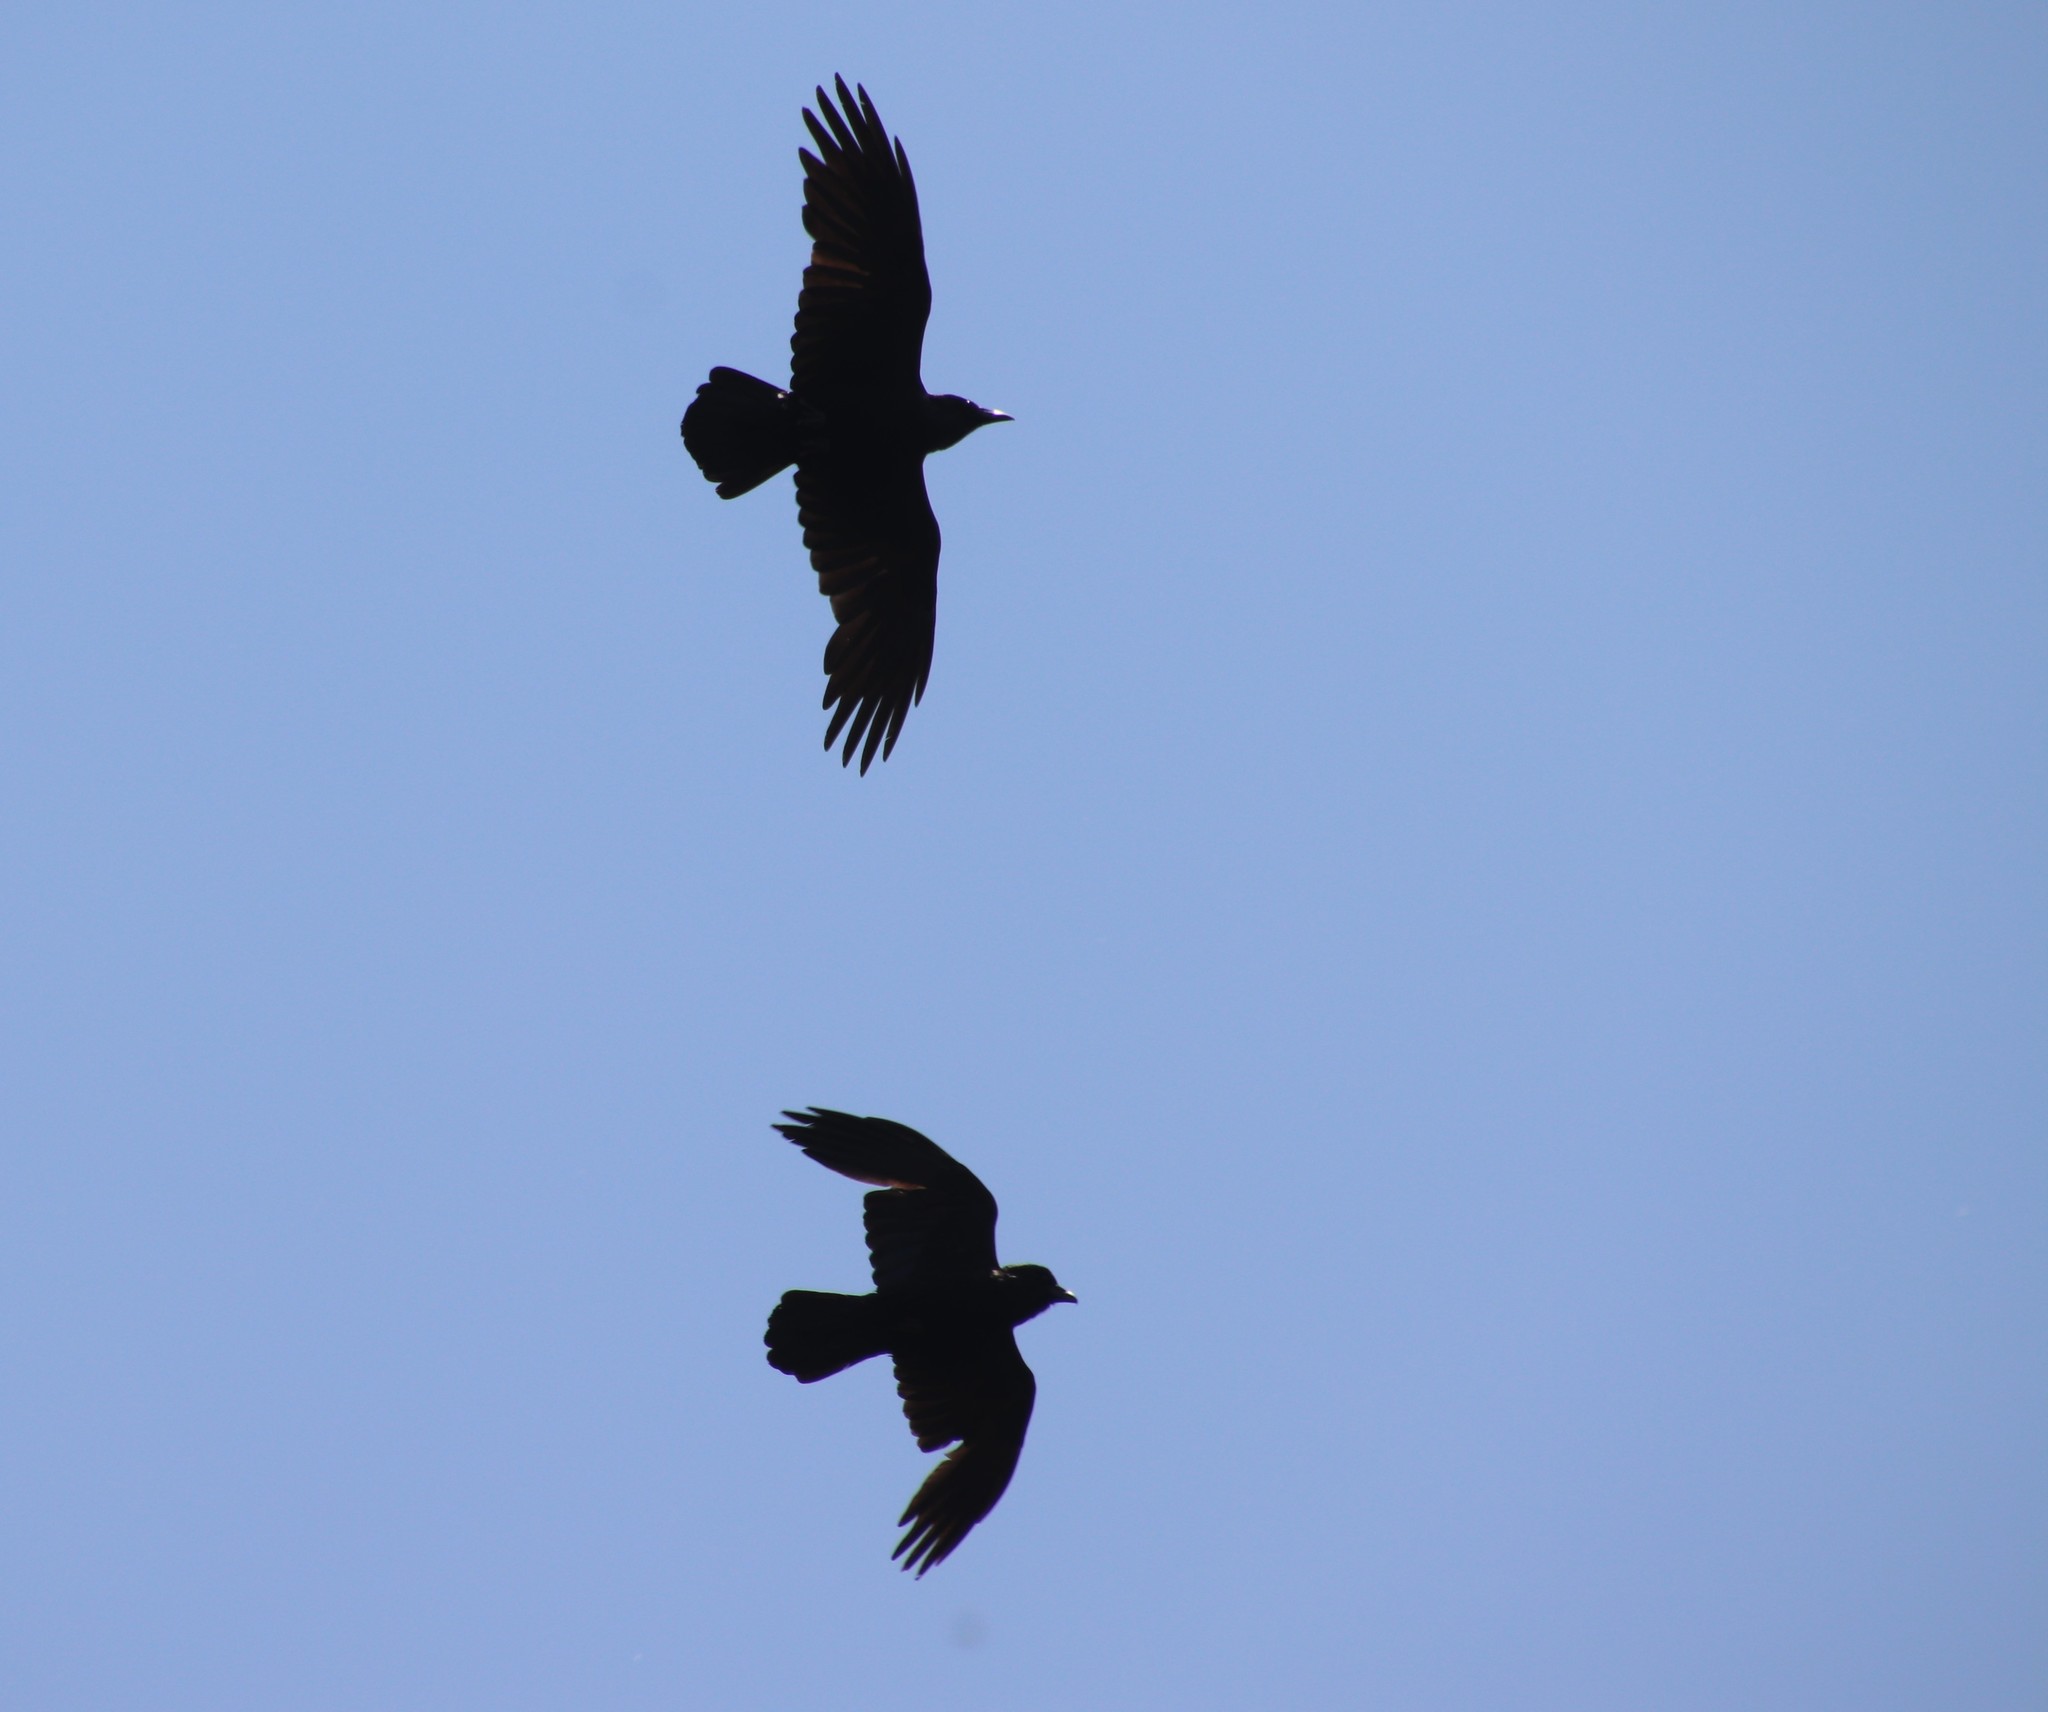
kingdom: Animalia
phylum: Chordata
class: Aves
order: Passeriformes
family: Corvidae
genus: Corvus
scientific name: Corvus corax
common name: Common raven
